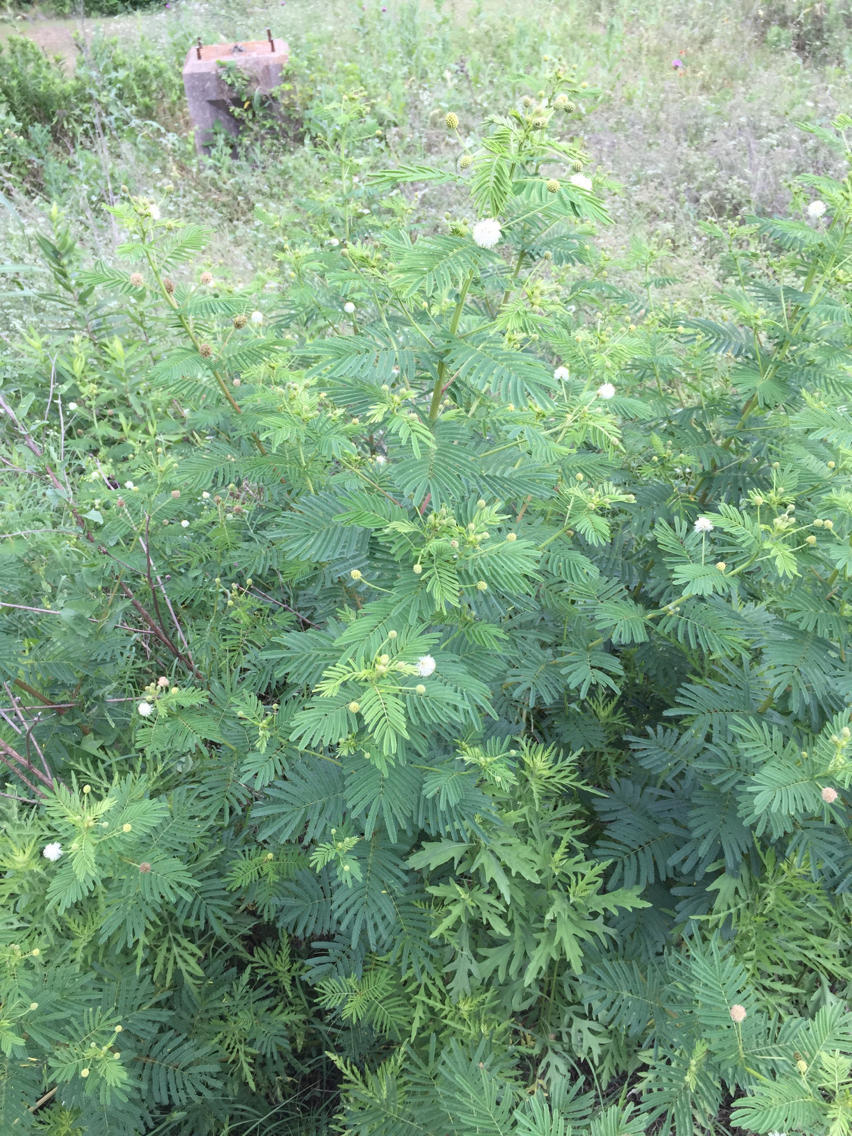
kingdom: Plantae
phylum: Tracheophyta
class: Magnoliopsida
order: Fabales
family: Fabaceae
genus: Desmanthus
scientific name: Desmanthus illinoensis
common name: Illinois bundle-flower
